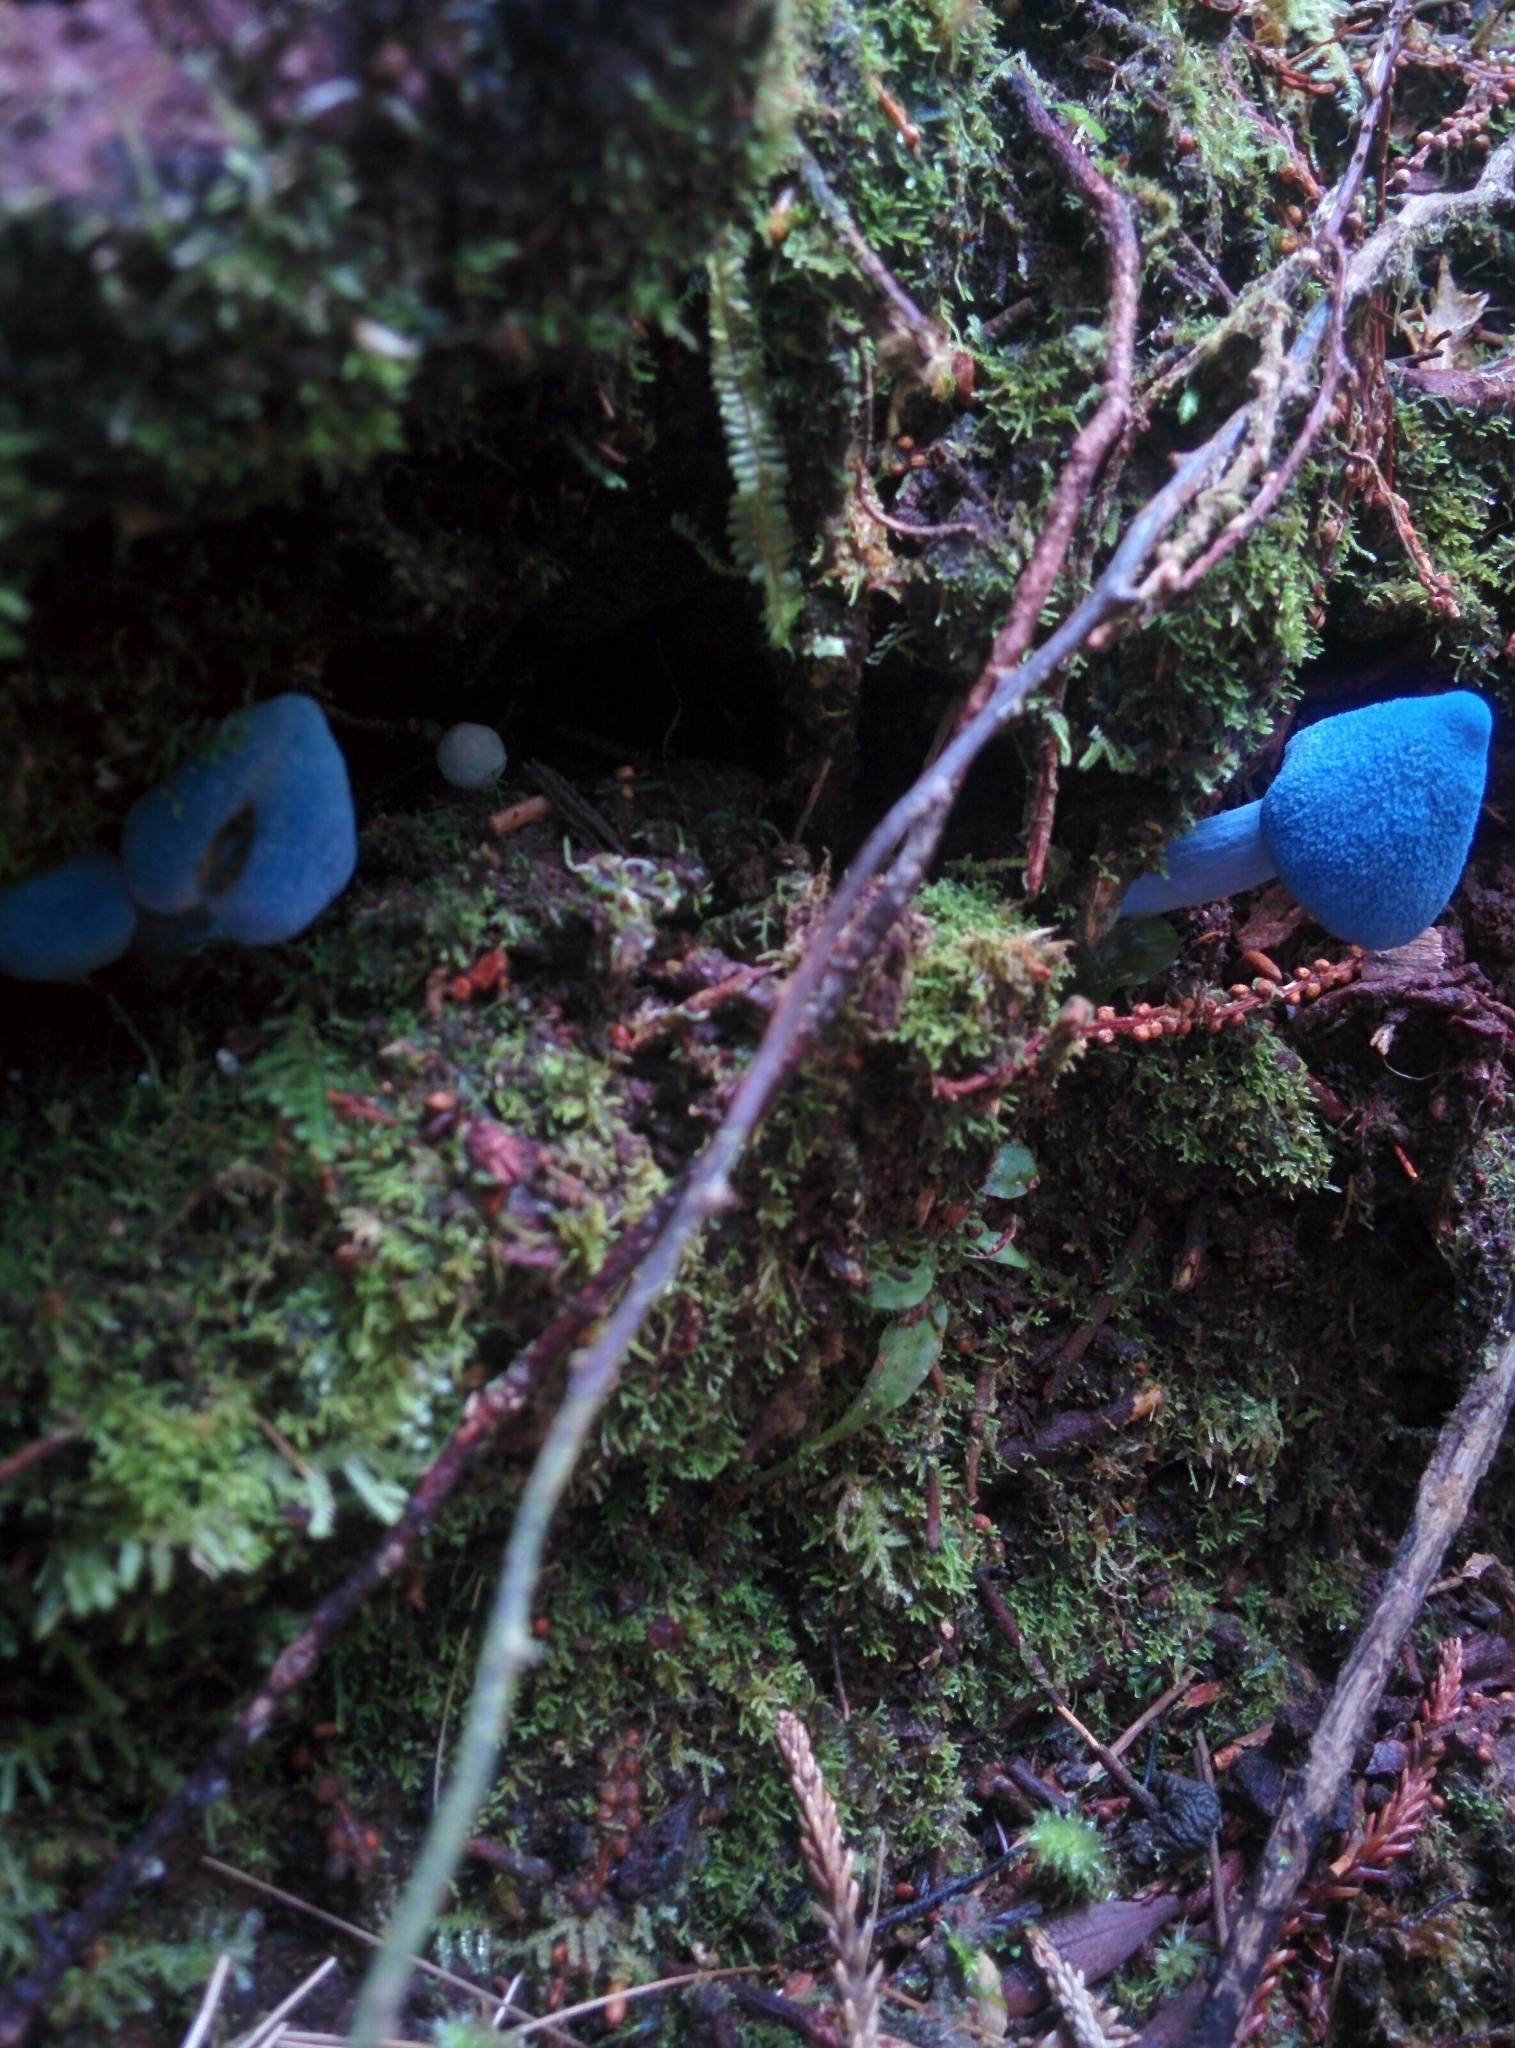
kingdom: Fungi
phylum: Basidiomycota
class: Agaricomycetes
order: Agaricales
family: Entolomataceae
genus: Entoloma
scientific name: Entoloma hochstetteri
